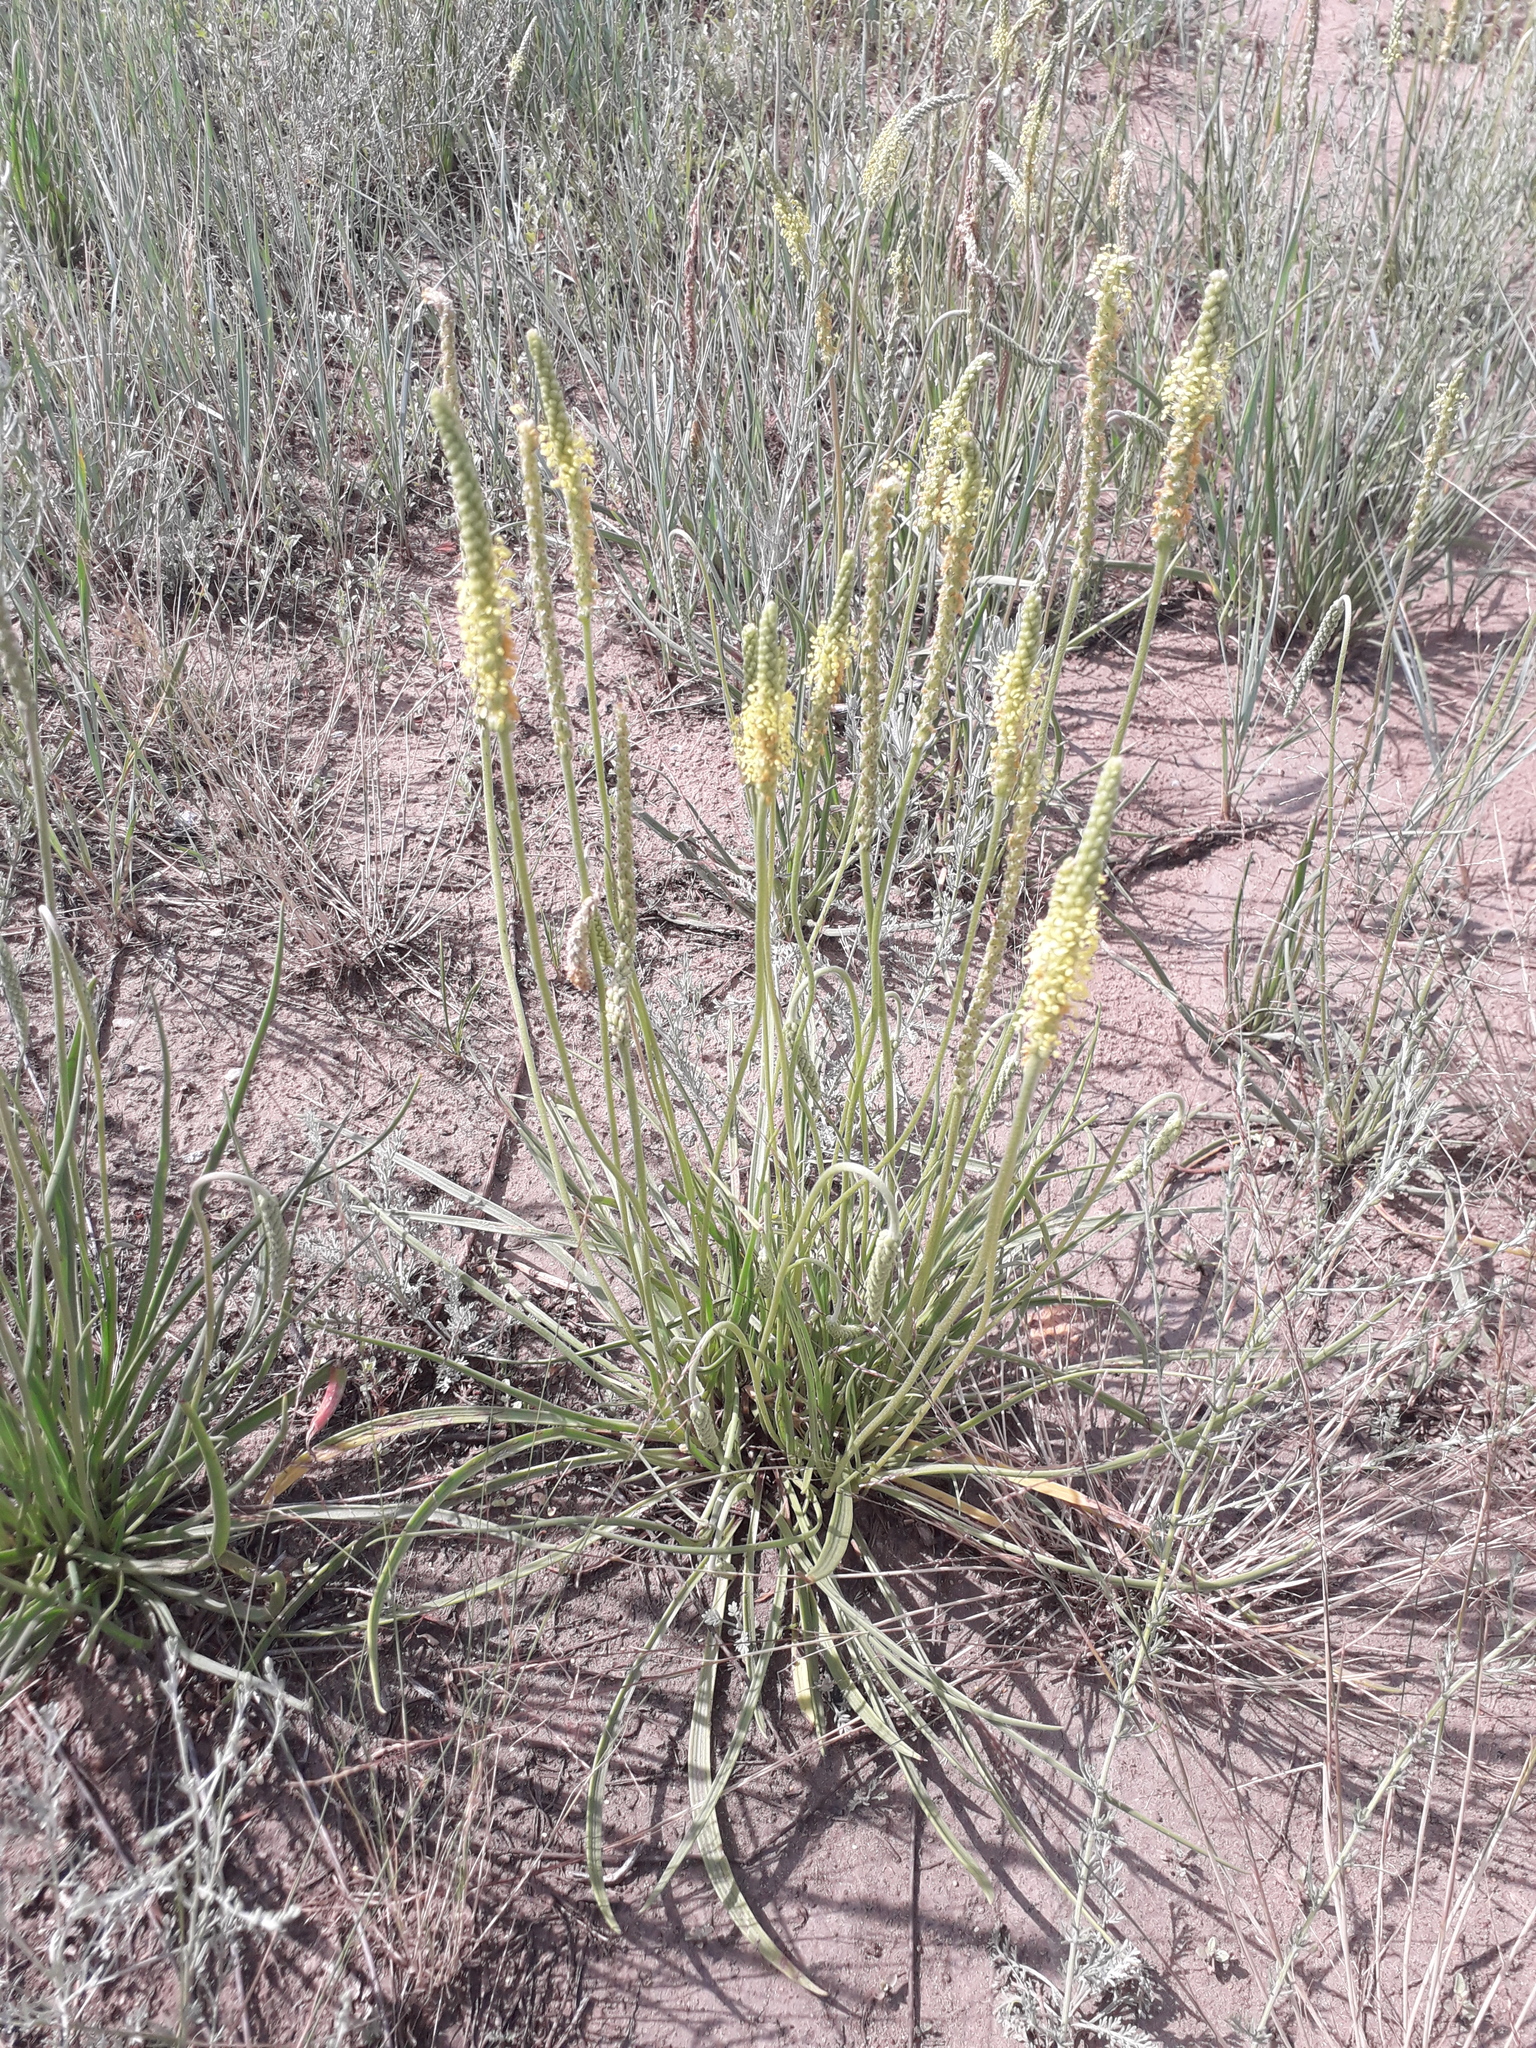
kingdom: Plantae
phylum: Tracheophyta
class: Magnoliopsida
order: Lamiales
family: Plantaginaceae
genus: Plantago
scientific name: Plantago salsa
